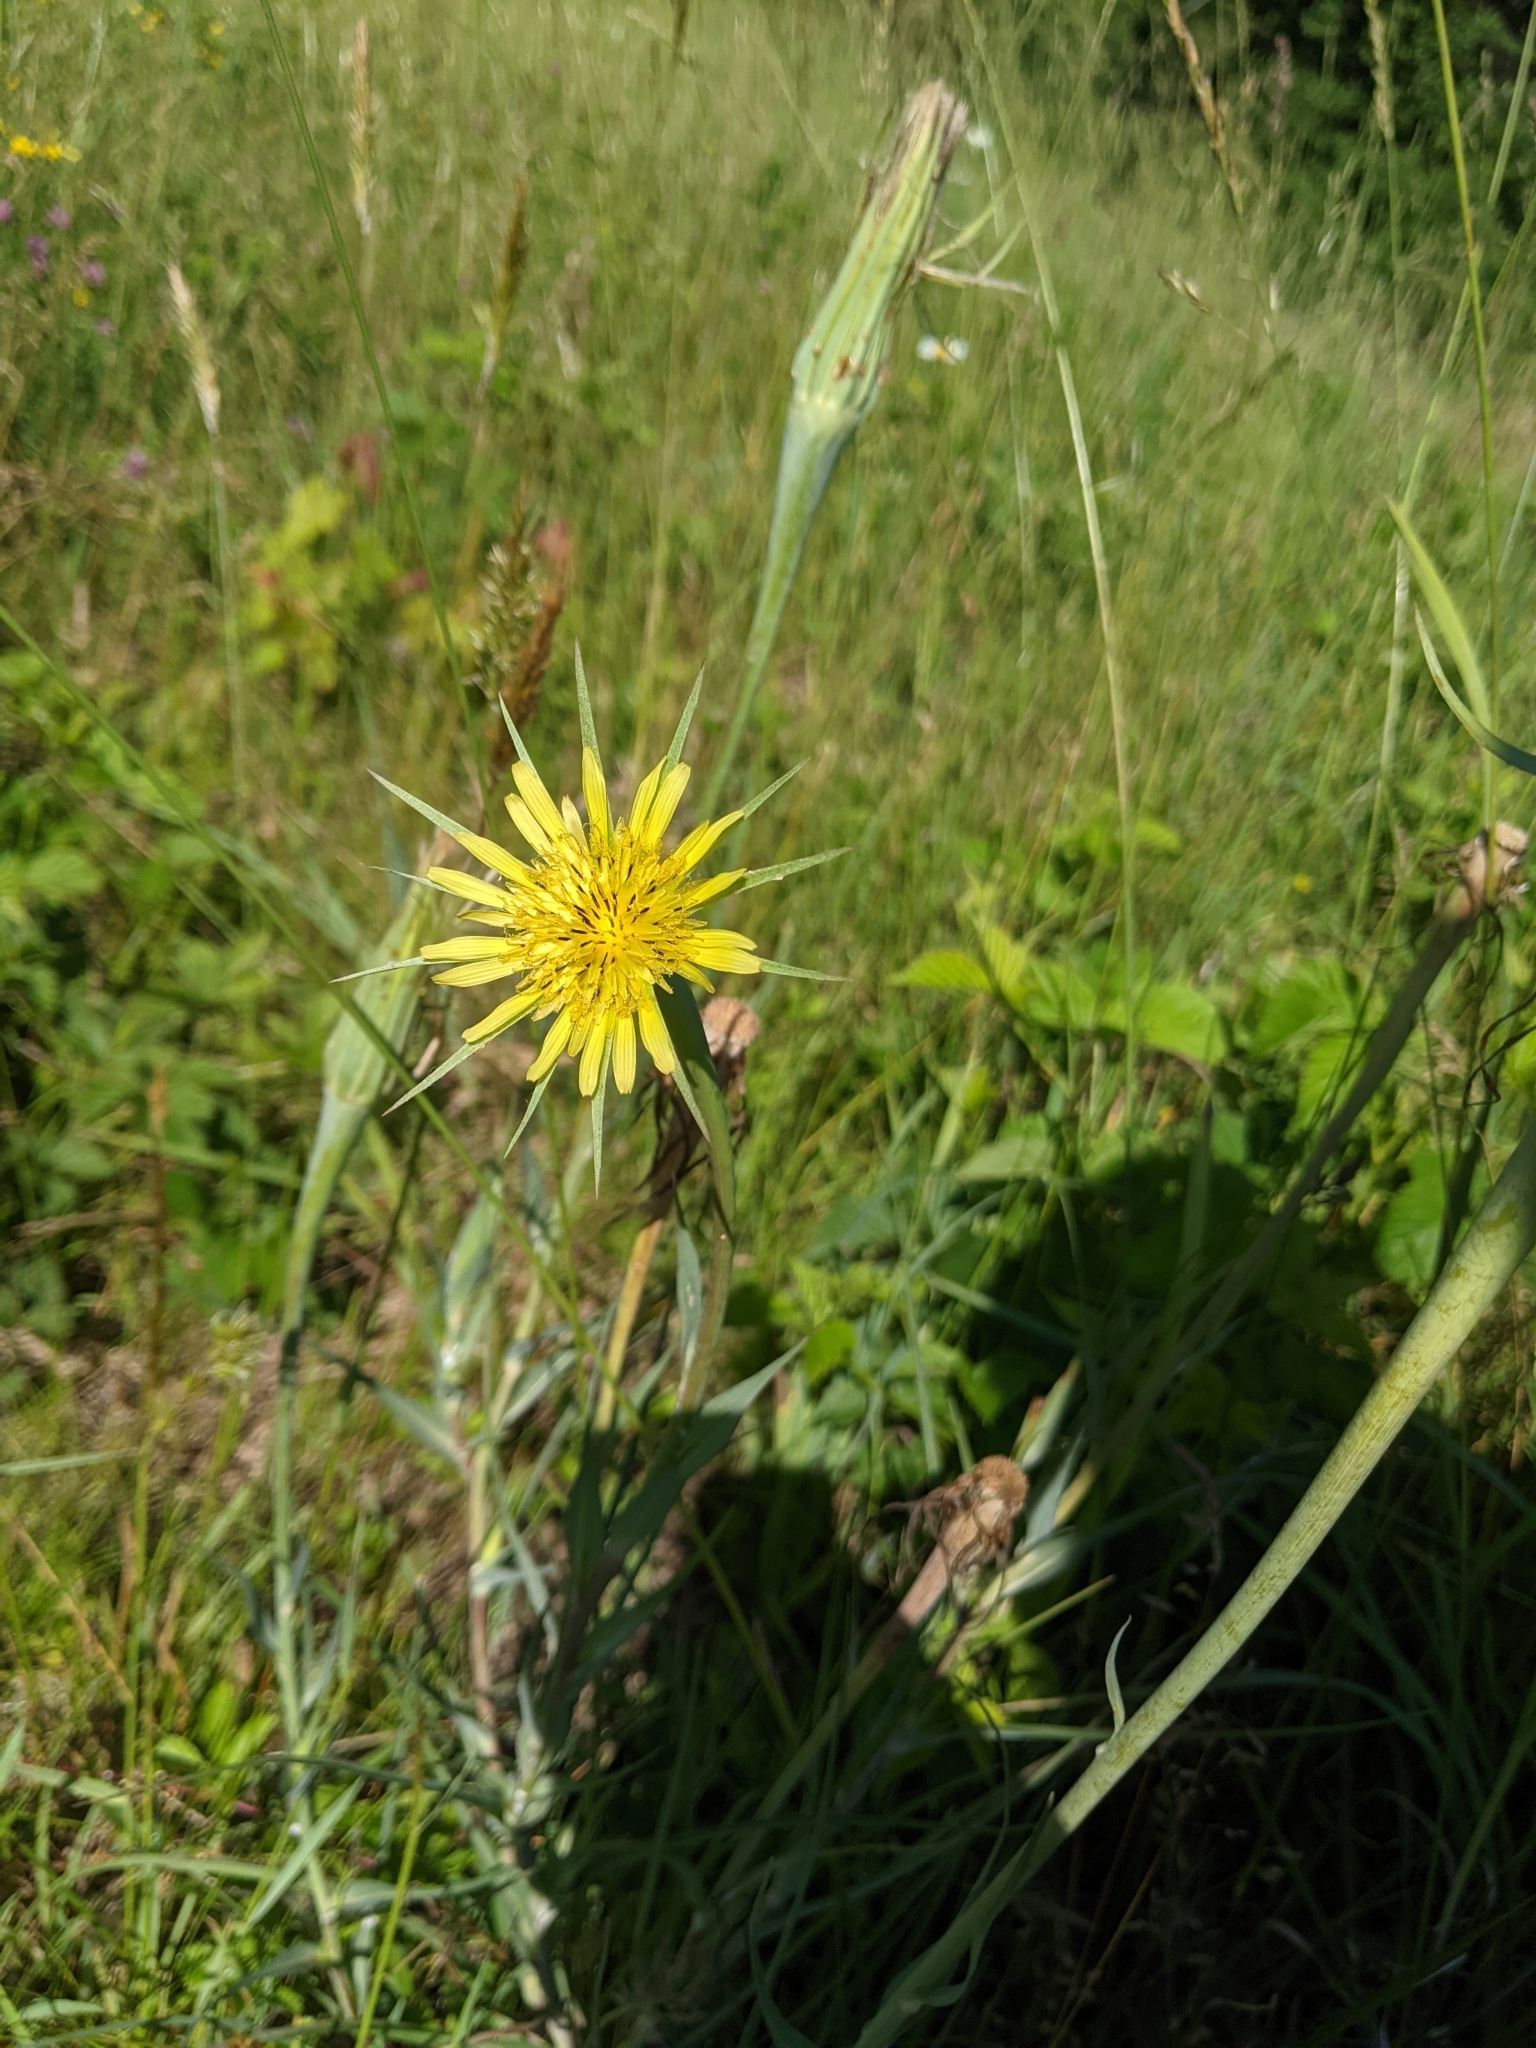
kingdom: Plantae
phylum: Tracheophyta
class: Magnoliopsida
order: Asterales
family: Asteraceae
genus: Tragopogon
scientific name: Tragopogon dubius
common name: Yellow salsify
